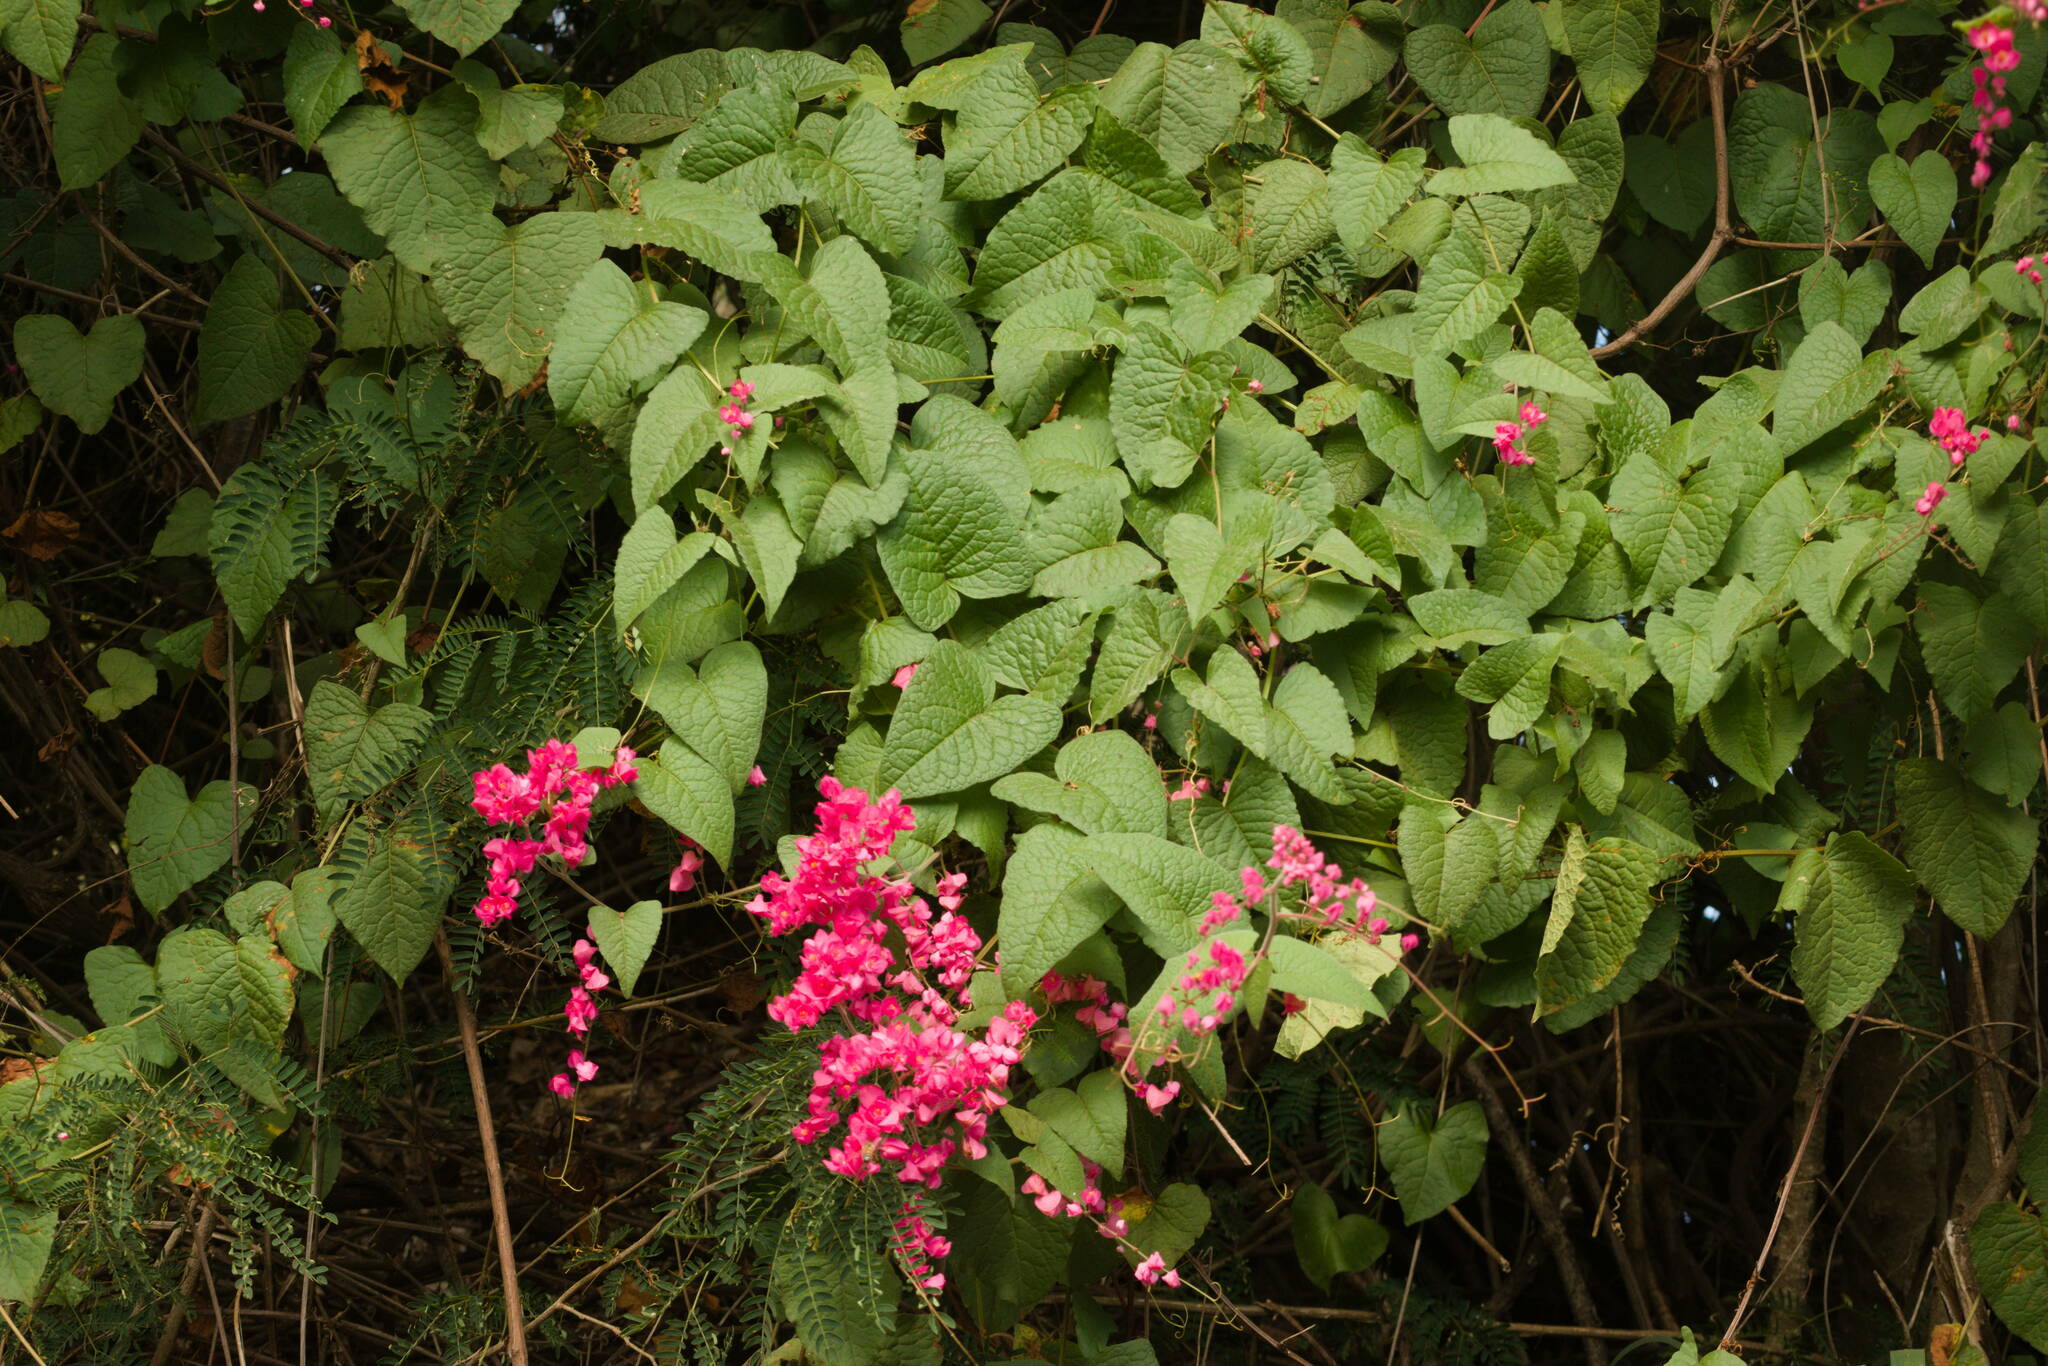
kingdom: Plantae
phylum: Tracheophyta
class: Magnoliopsida
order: Caryophyllales
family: Polygonaceae
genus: Antigonon
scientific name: Antigonon leptopus
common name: Coral vine
